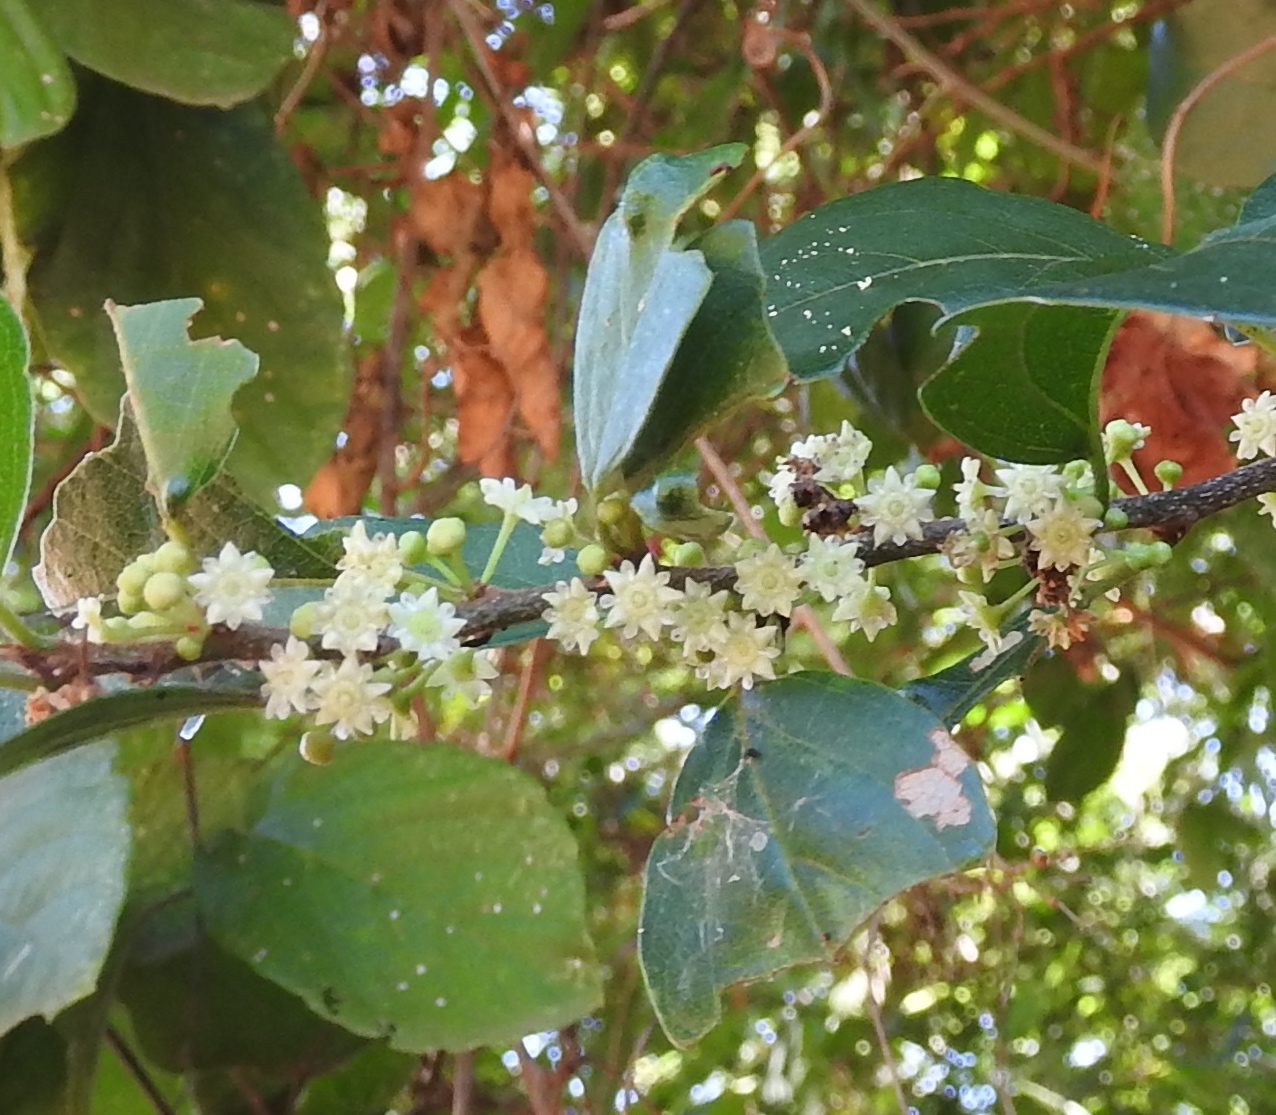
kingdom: Plantae
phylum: Tracheophyta
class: Magnoliopsida
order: Rosales
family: Rhamnaceae
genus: Colubrina
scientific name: Colubrina heteroneura
